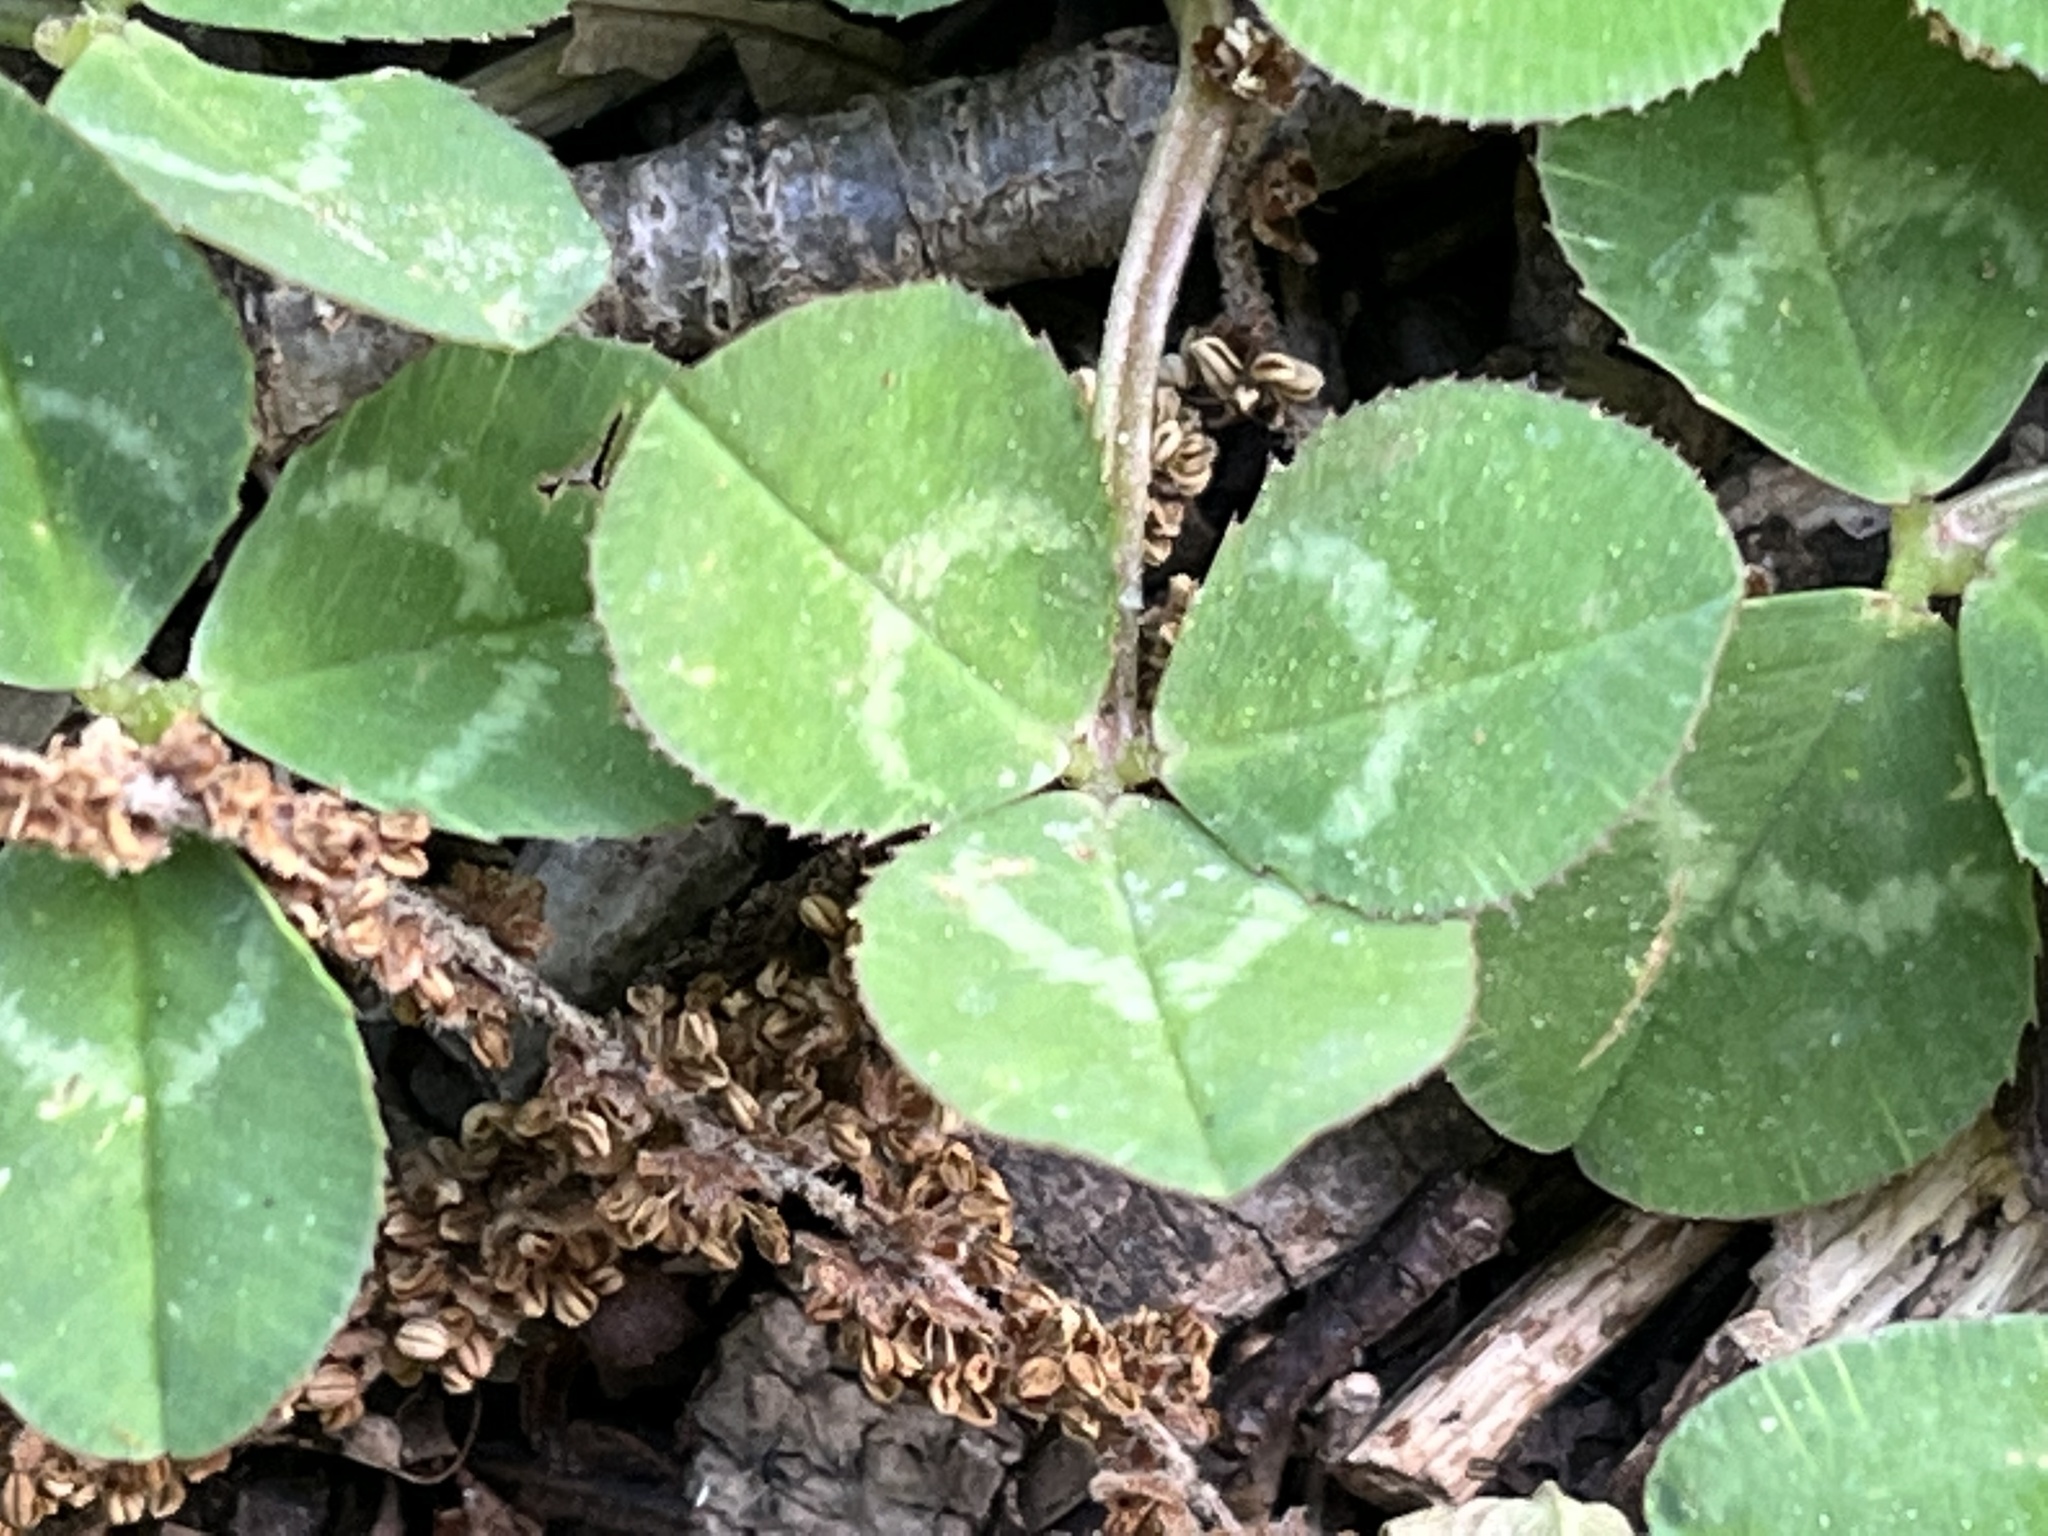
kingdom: Plantae
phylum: Tracheophyta
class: Magnoliopsida
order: Fabales
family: Fabaceae
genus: Trifolium
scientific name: Trifolium repens
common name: White clover
